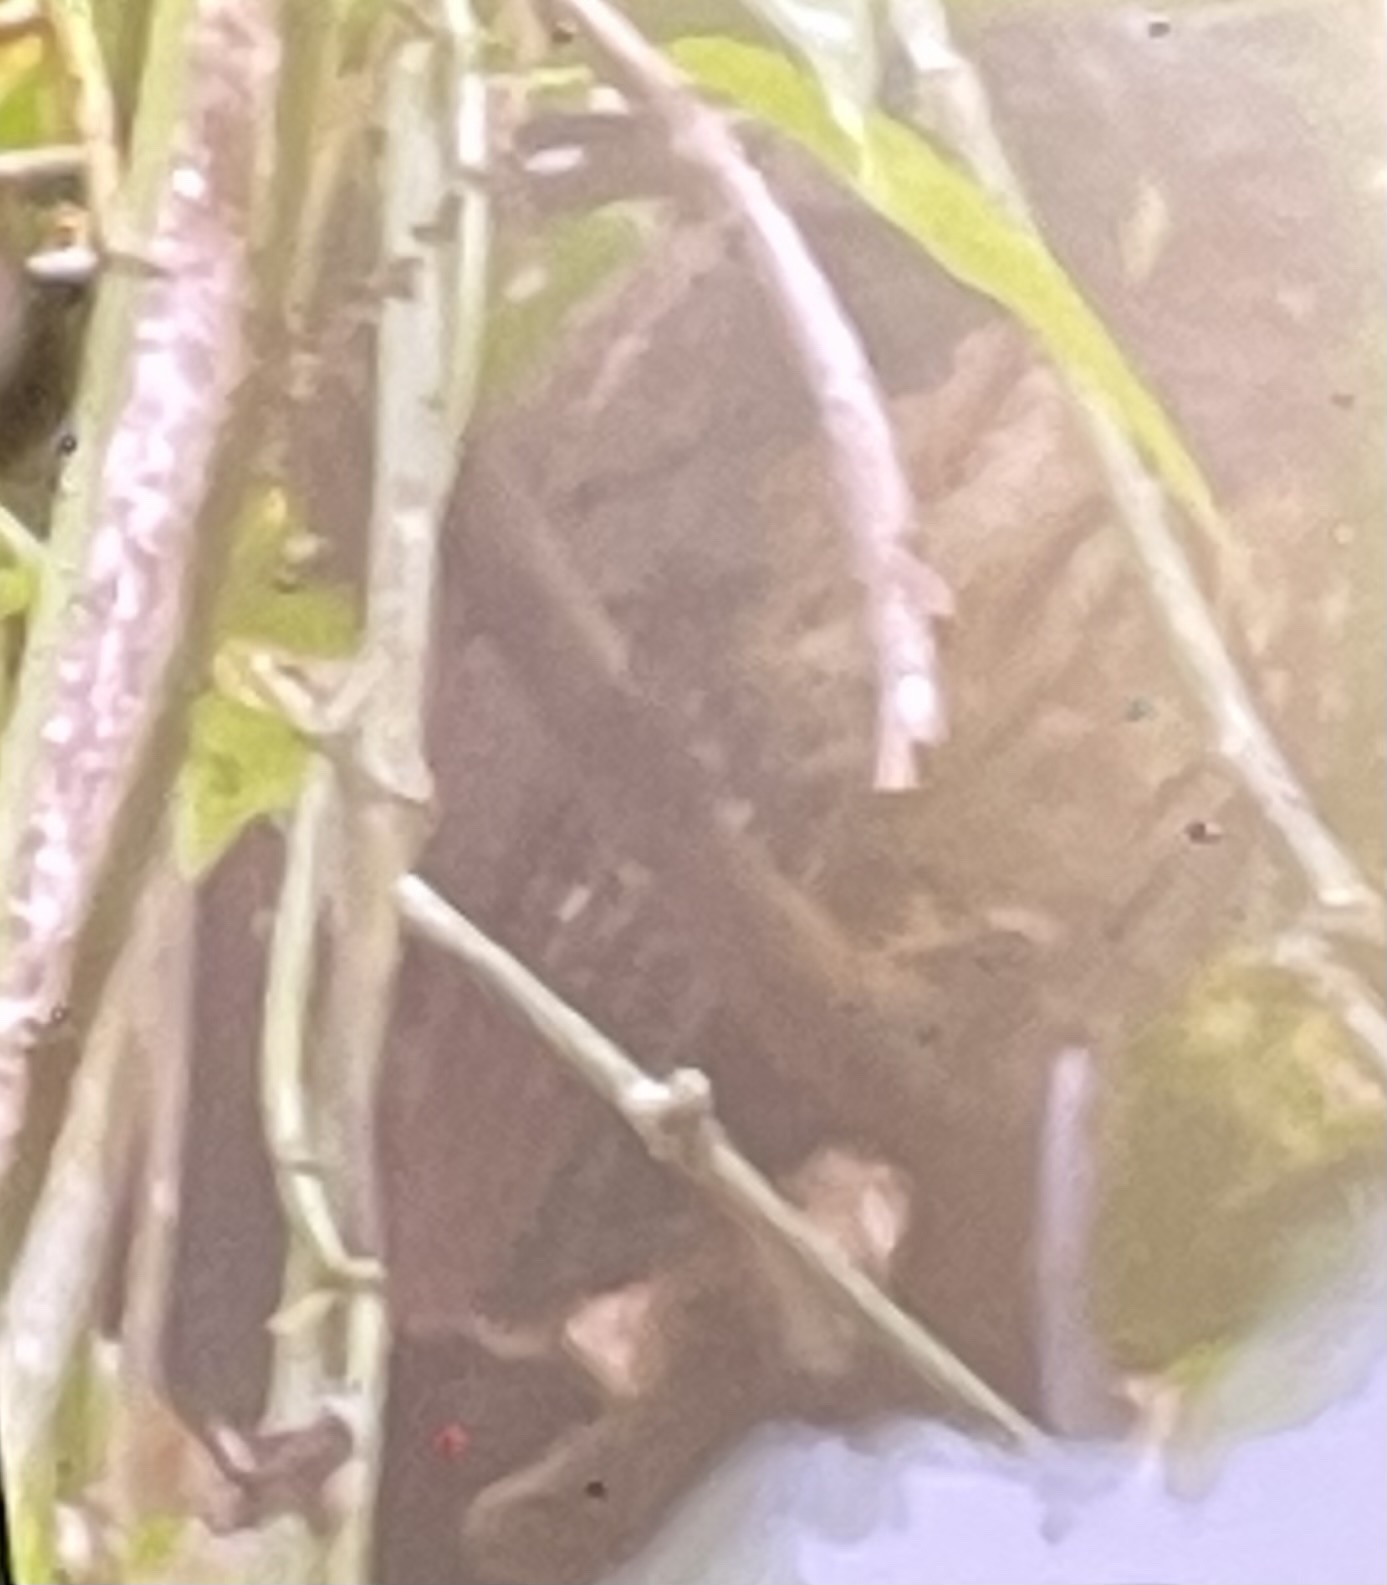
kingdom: Animalia
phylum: Chordata
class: Aves
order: Strigiformes
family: Strigidae
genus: Strix
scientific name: Strix virgata
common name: Mottled owl
